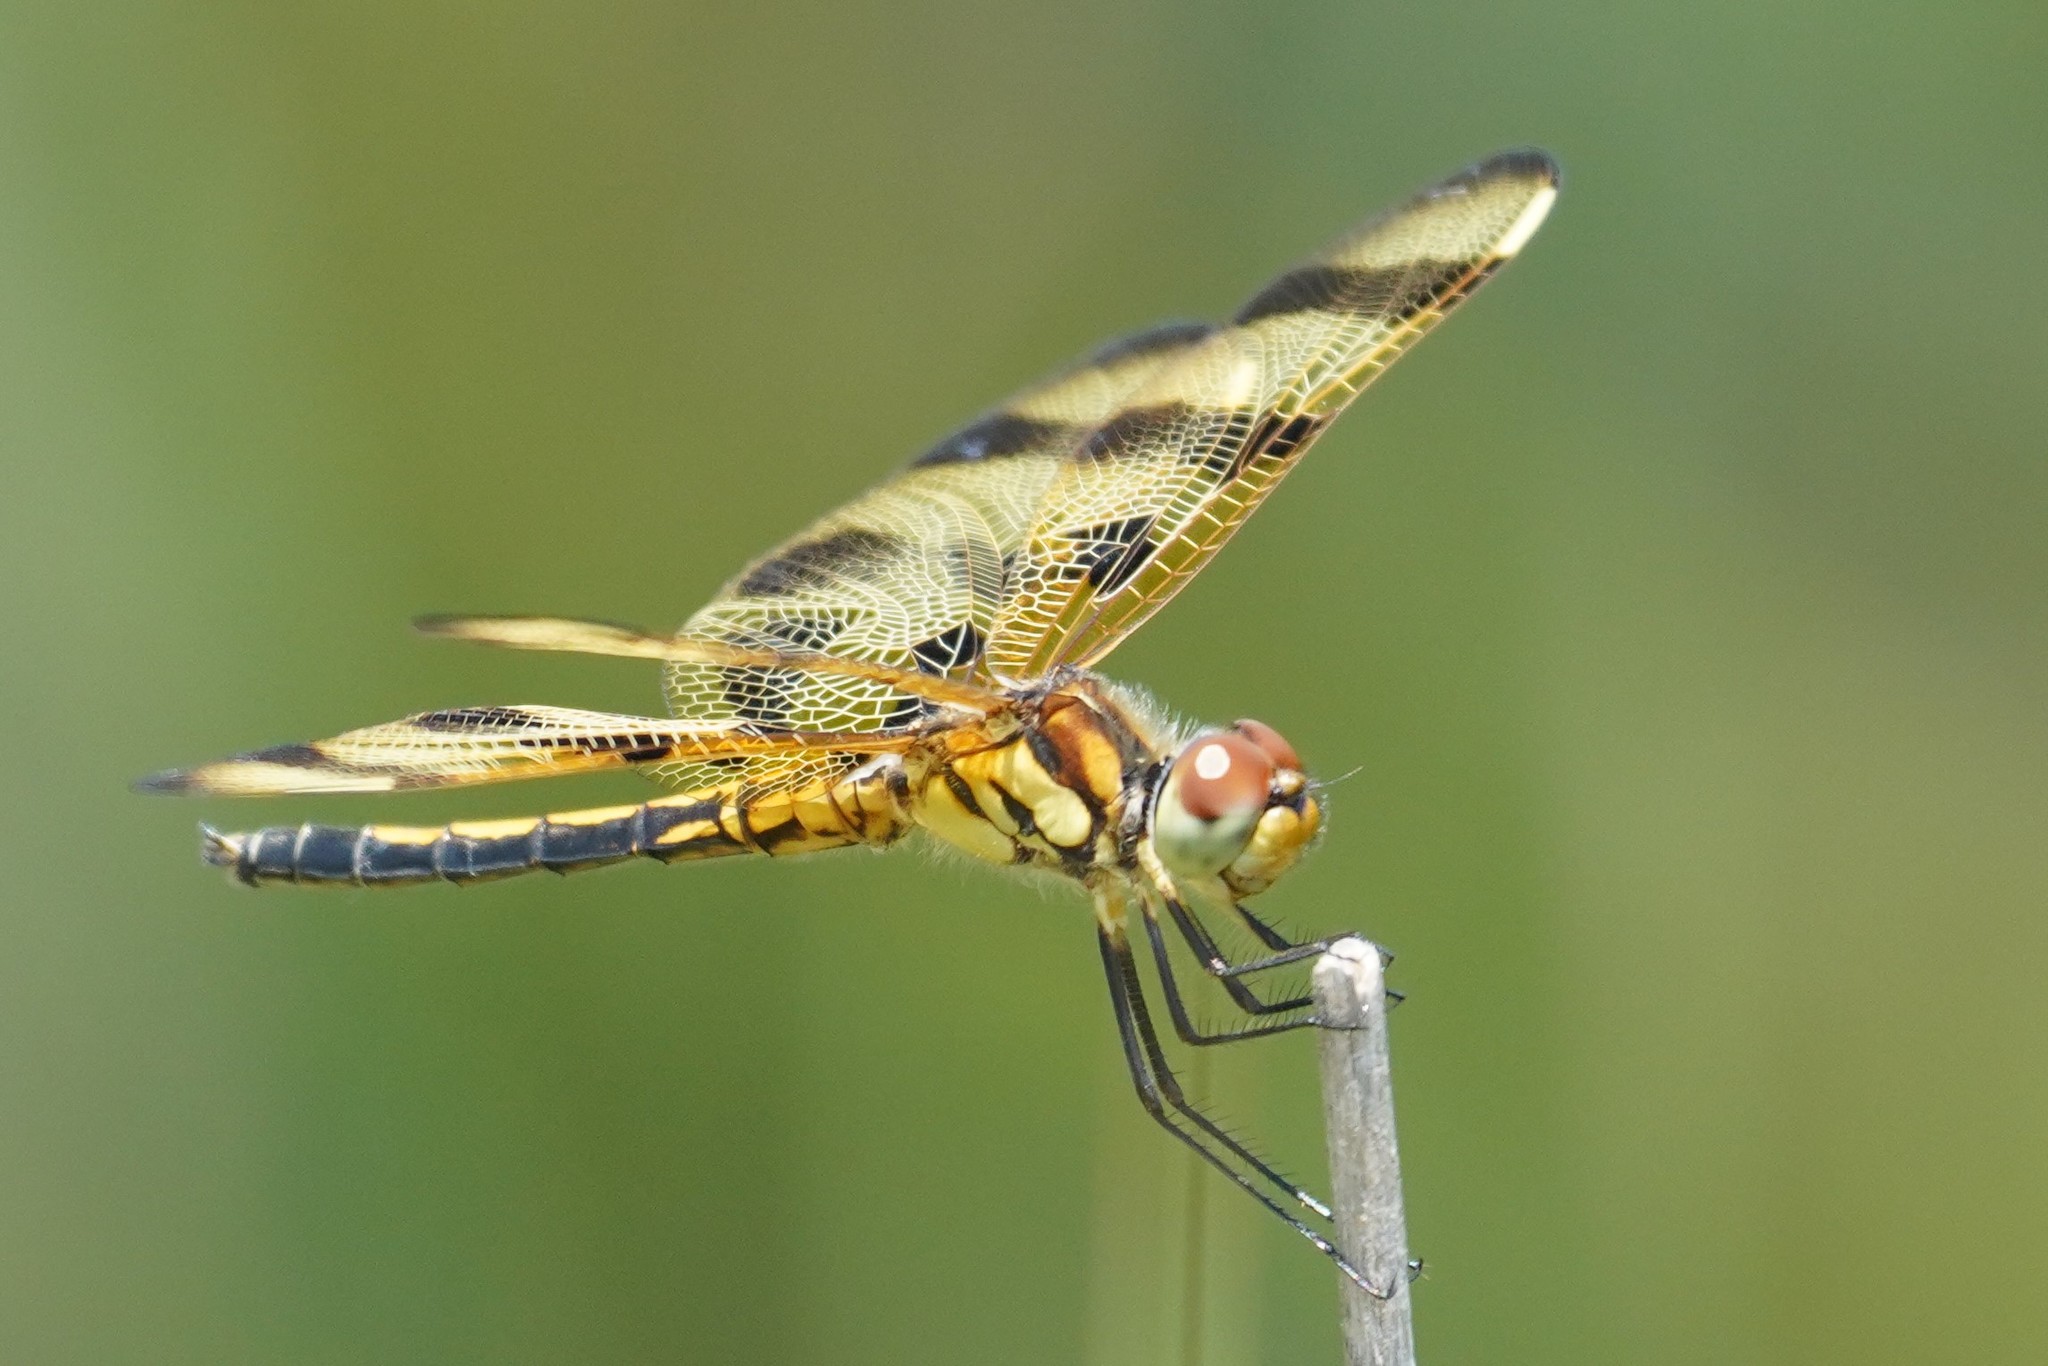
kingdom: Animalia
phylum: Arthropoda
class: Insecta
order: Odonata
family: Libellulidae
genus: Celithemis
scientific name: Celithemis eponina
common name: Halloween pennant
